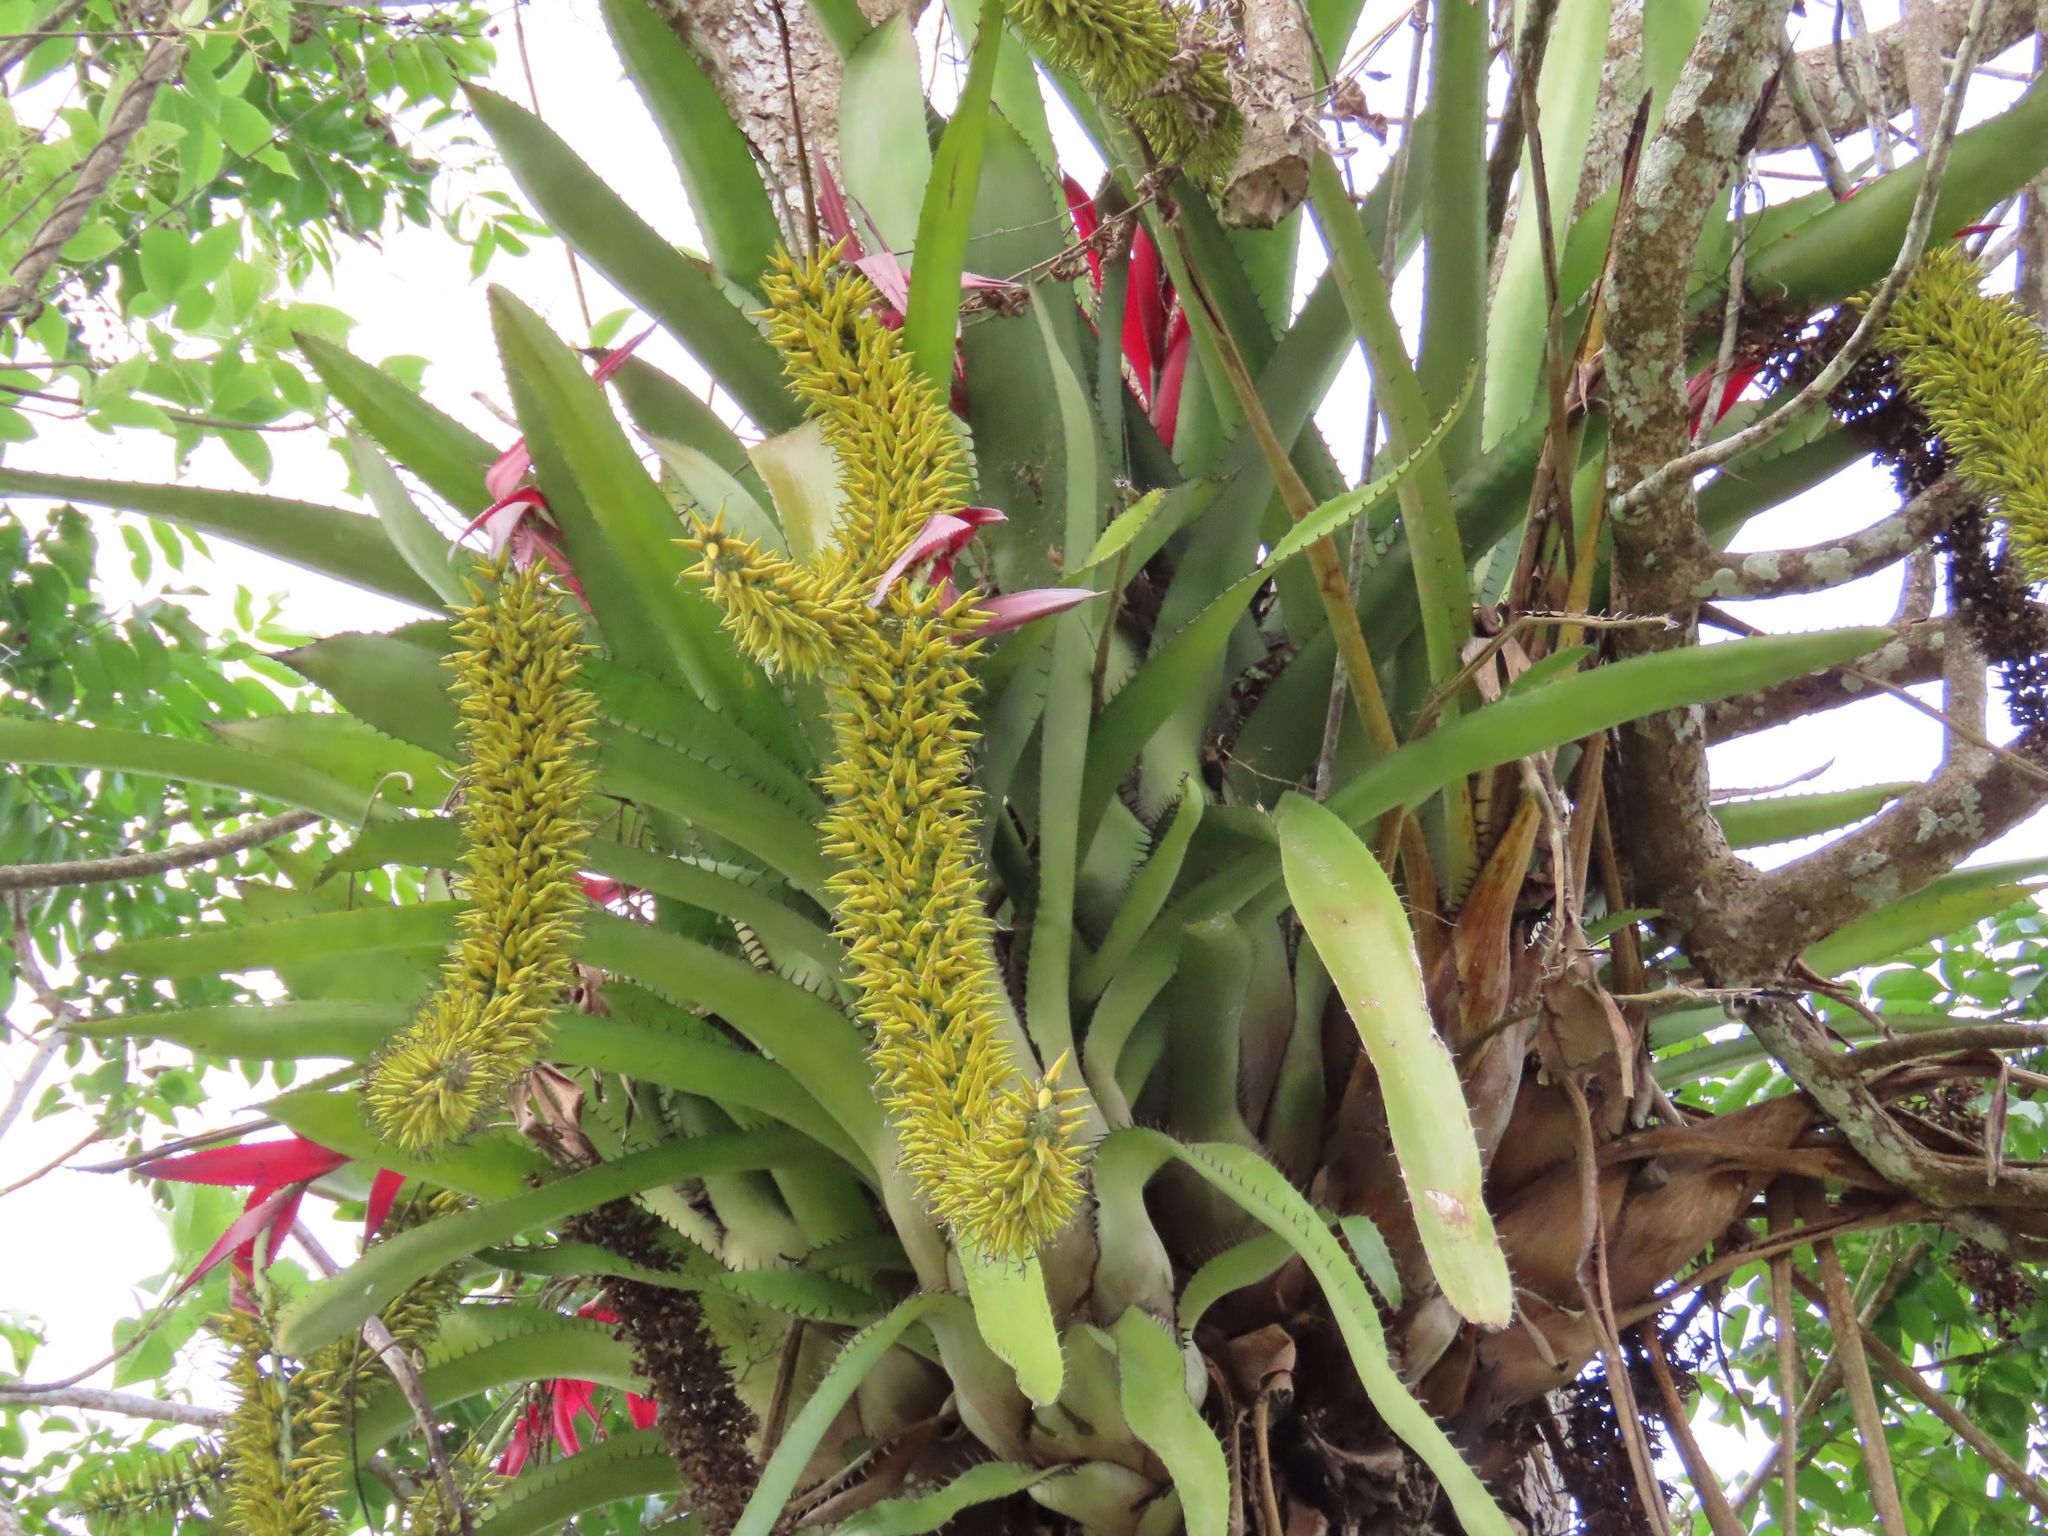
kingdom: Plantae
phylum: Tracheophyta
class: Liliopsida
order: Poales
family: Bromeliaceae
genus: Aechmea
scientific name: Aechmea setigera
